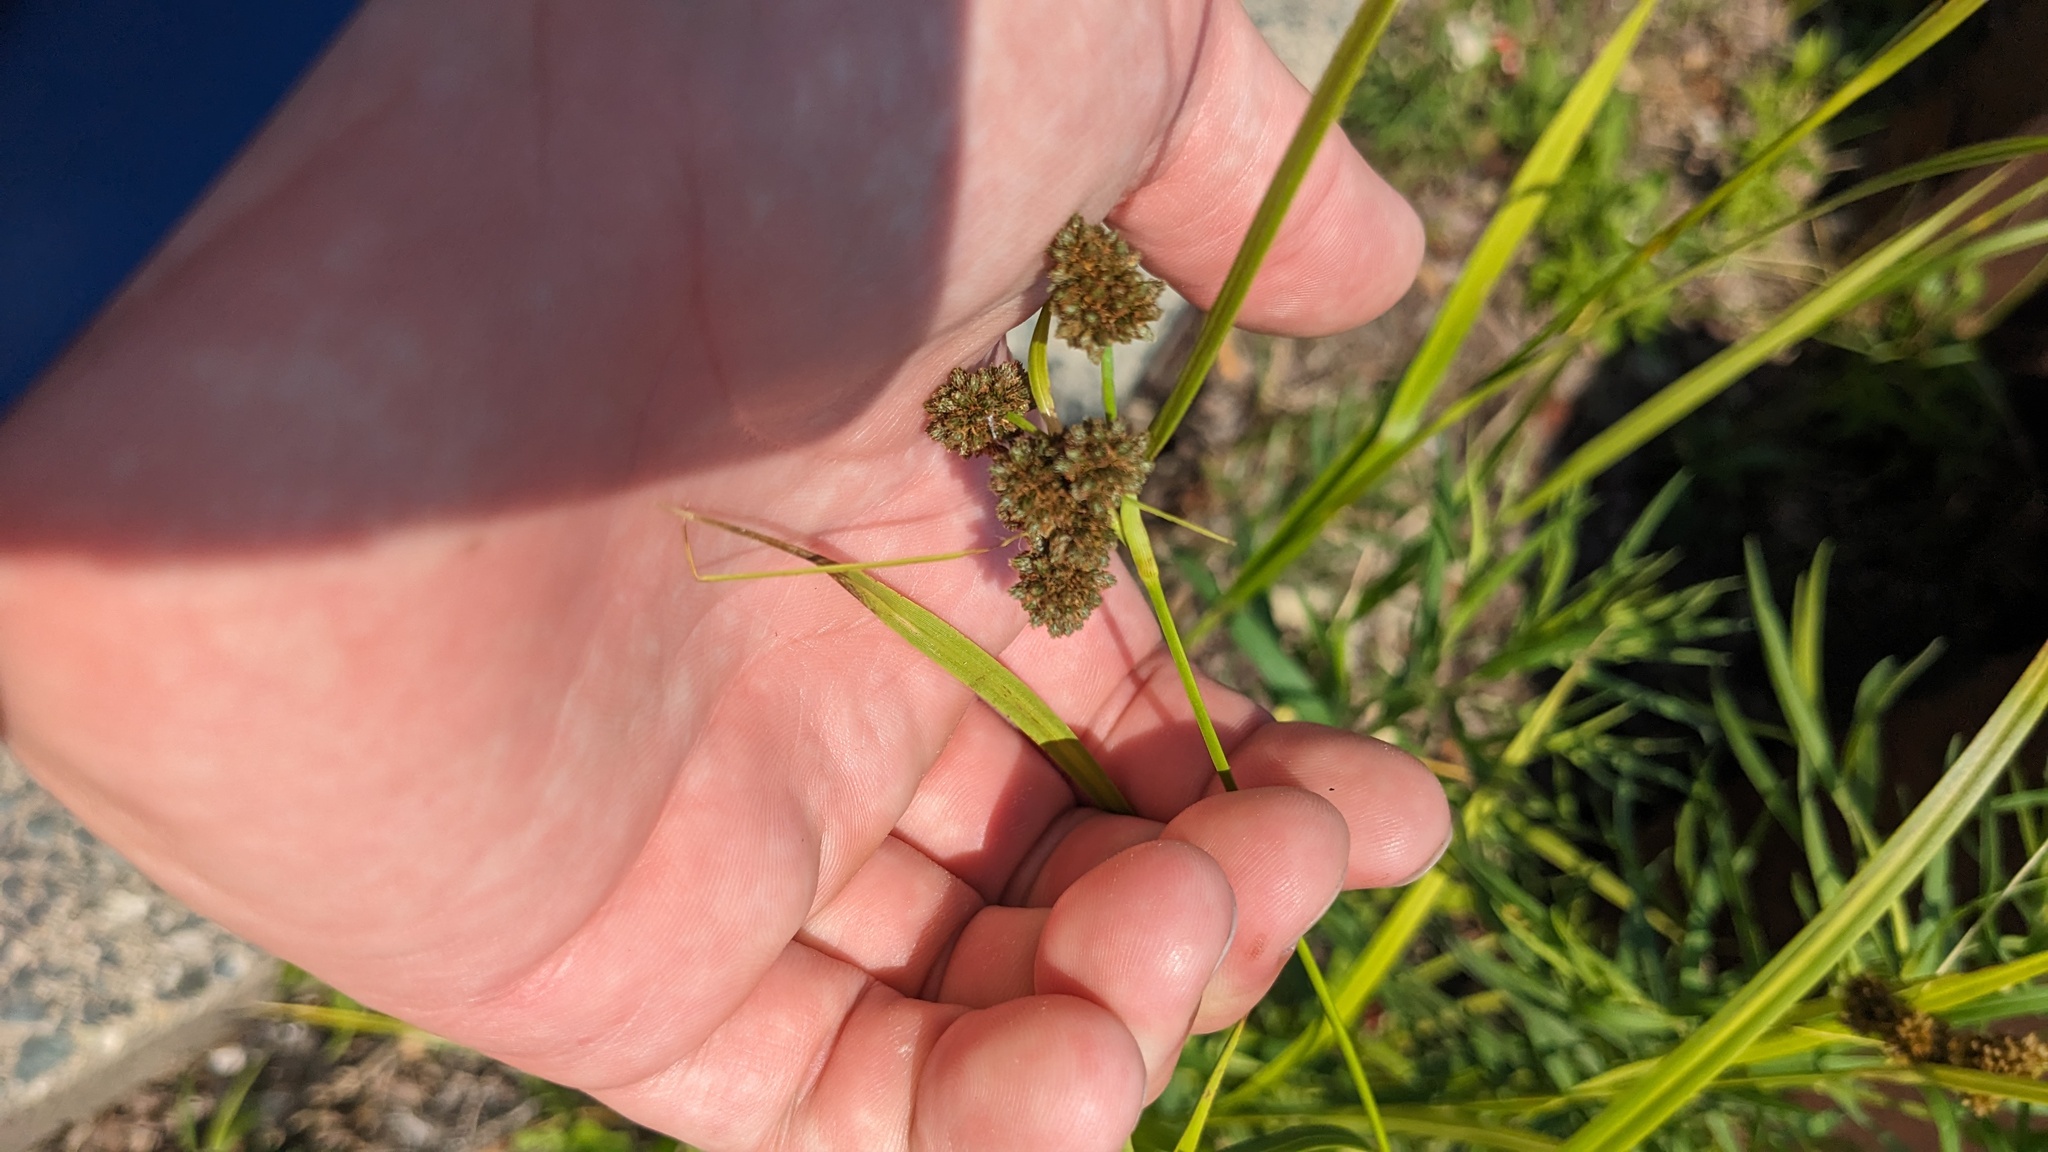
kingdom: Plantae
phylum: Tracheophyta
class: Liliopsida
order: Poales
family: Cyperaceae
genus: Scirpus
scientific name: Scirpus atrovirens
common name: Black bulrush
